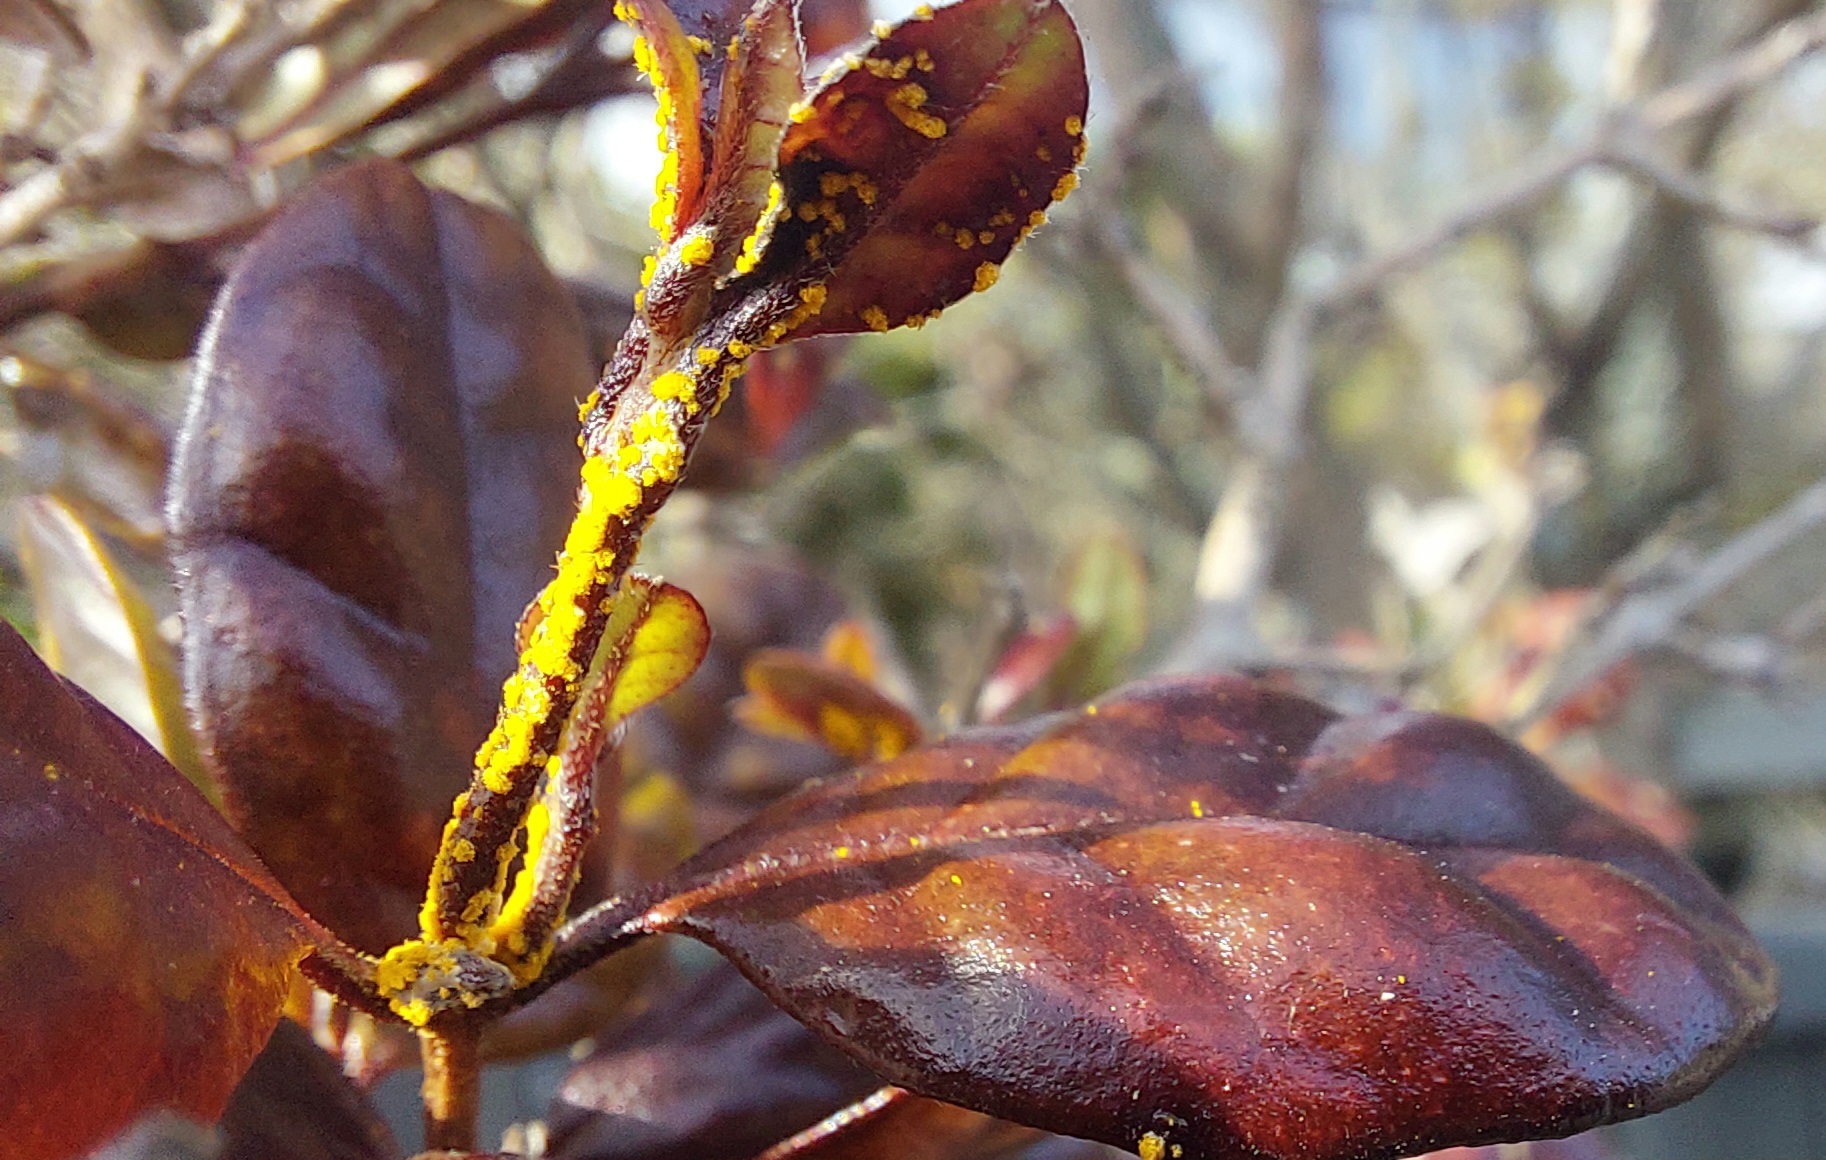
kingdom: Fungi
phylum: Basidiomycota
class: Pucciniomycetes
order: Pucciniales
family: Sphaerophragmiaceae
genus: Austropuccinia
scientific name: Austropuccinia psidii
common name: Myrtle rust
